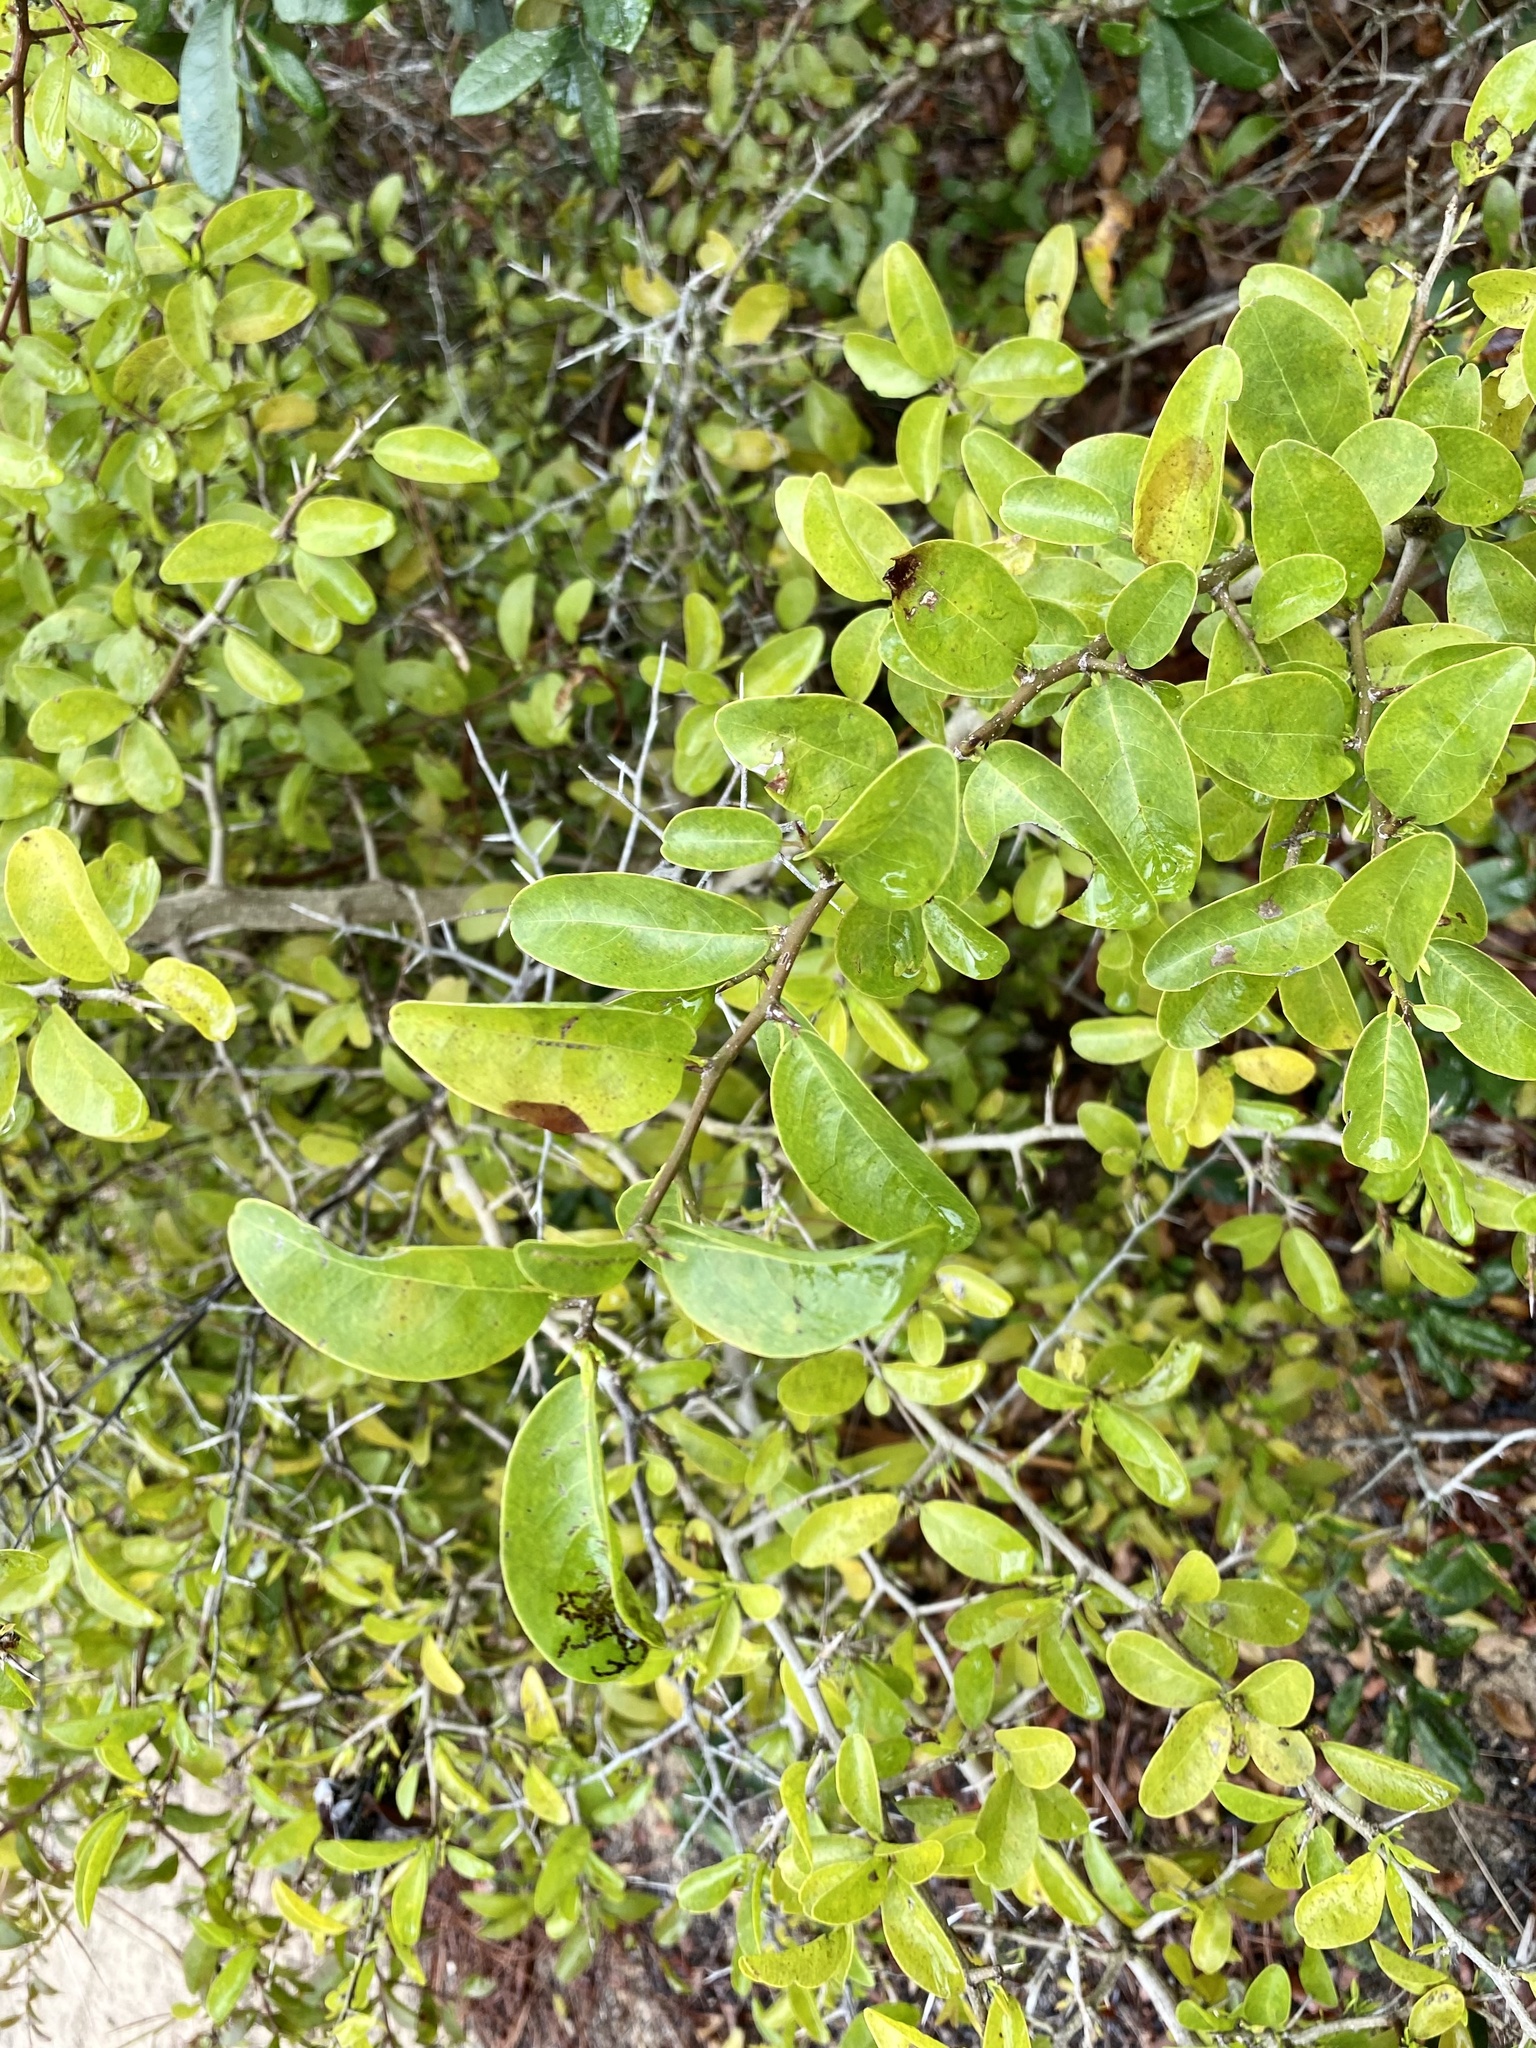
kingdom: Plantae
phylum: Tracheophyta
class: Magnoliopsida
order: Santalales
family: Ximeniaceae
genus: Ximenia
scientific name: Ximenia americana
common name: Tallowwood
